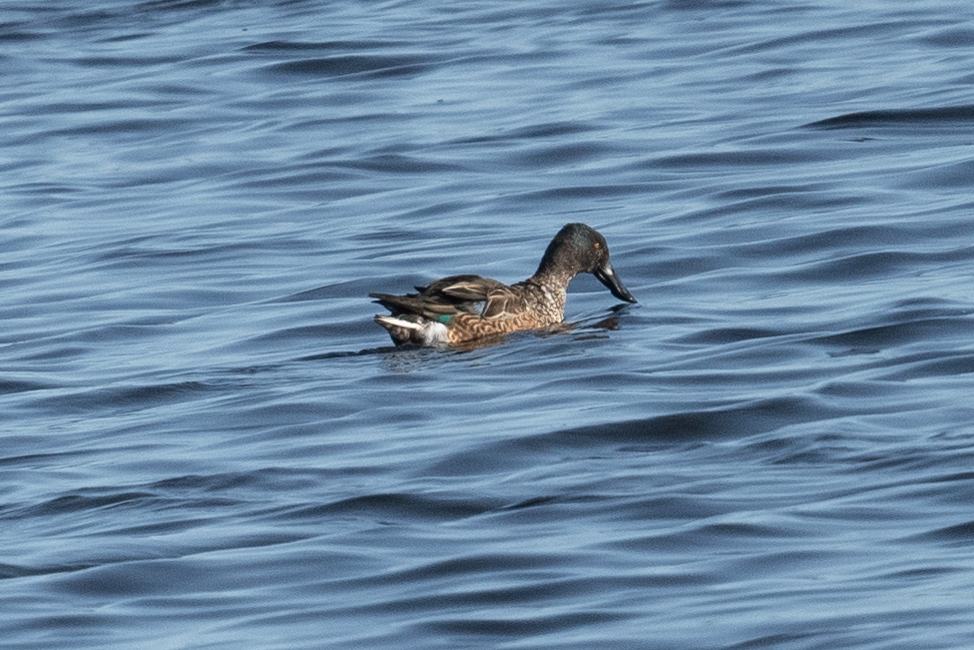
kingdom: Animalia
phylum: Chordata
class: Aves
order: Anseriformes
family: Anatidae
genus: Spatula
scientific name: Spatula clypeata
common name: Northern shoveler
